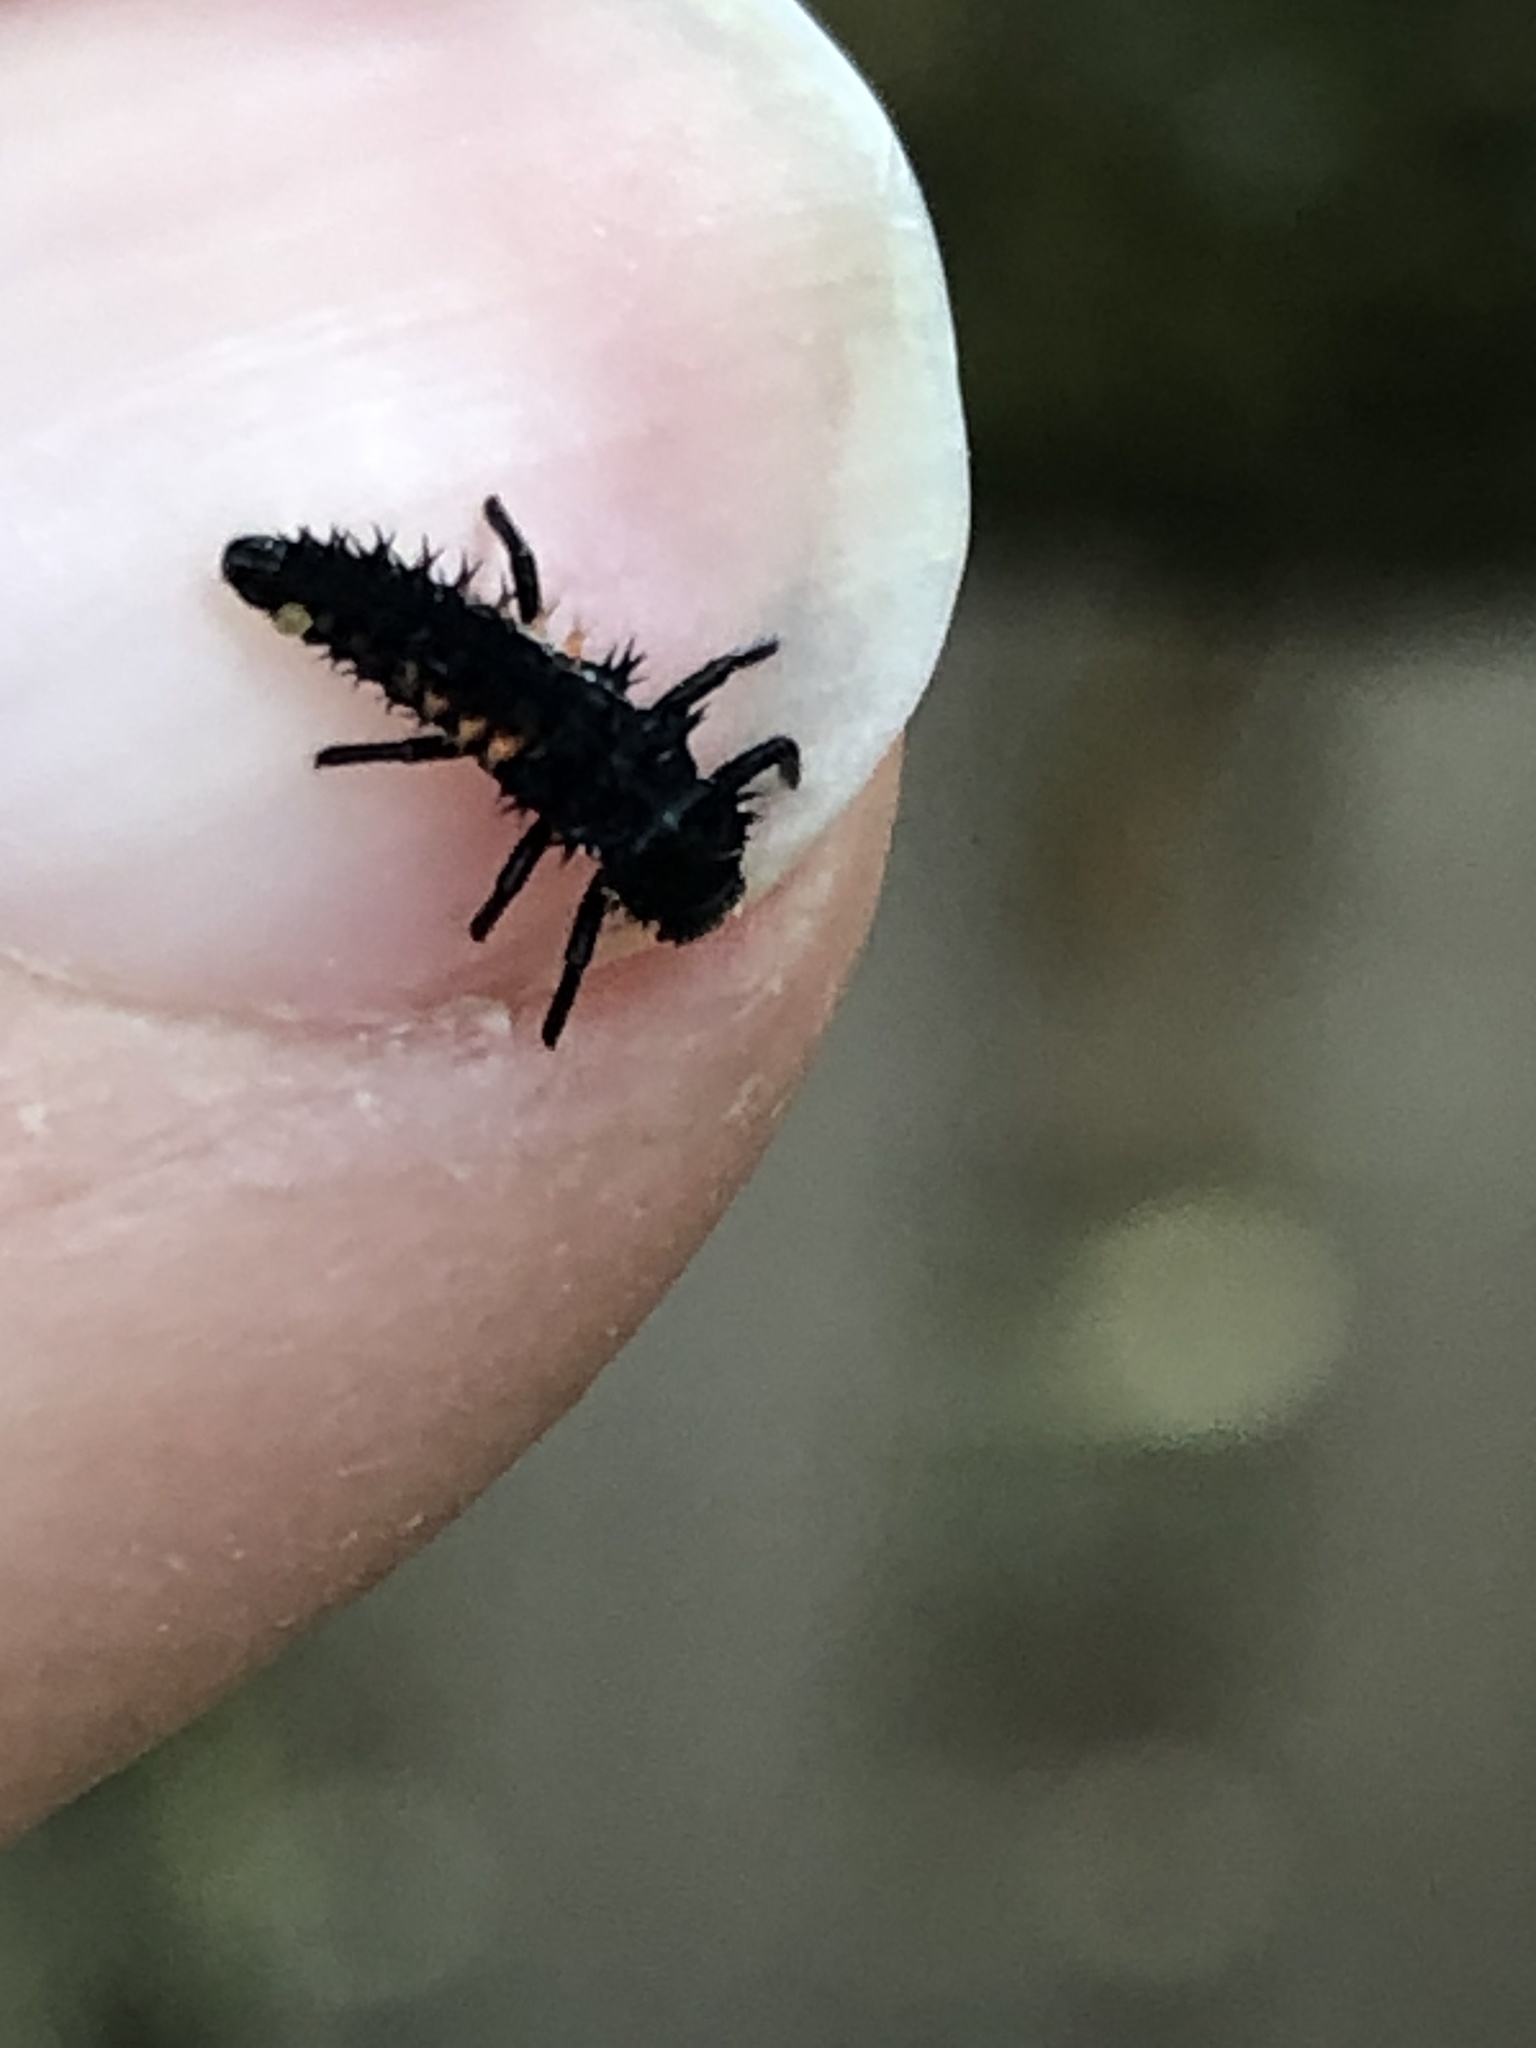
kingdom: Animalia
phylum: Arthropoda
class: Insecta
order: Coleoptera
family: Coccinellidae
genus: Harmonia
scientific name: Harmonia axyridis
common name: Harlequin ladybird
